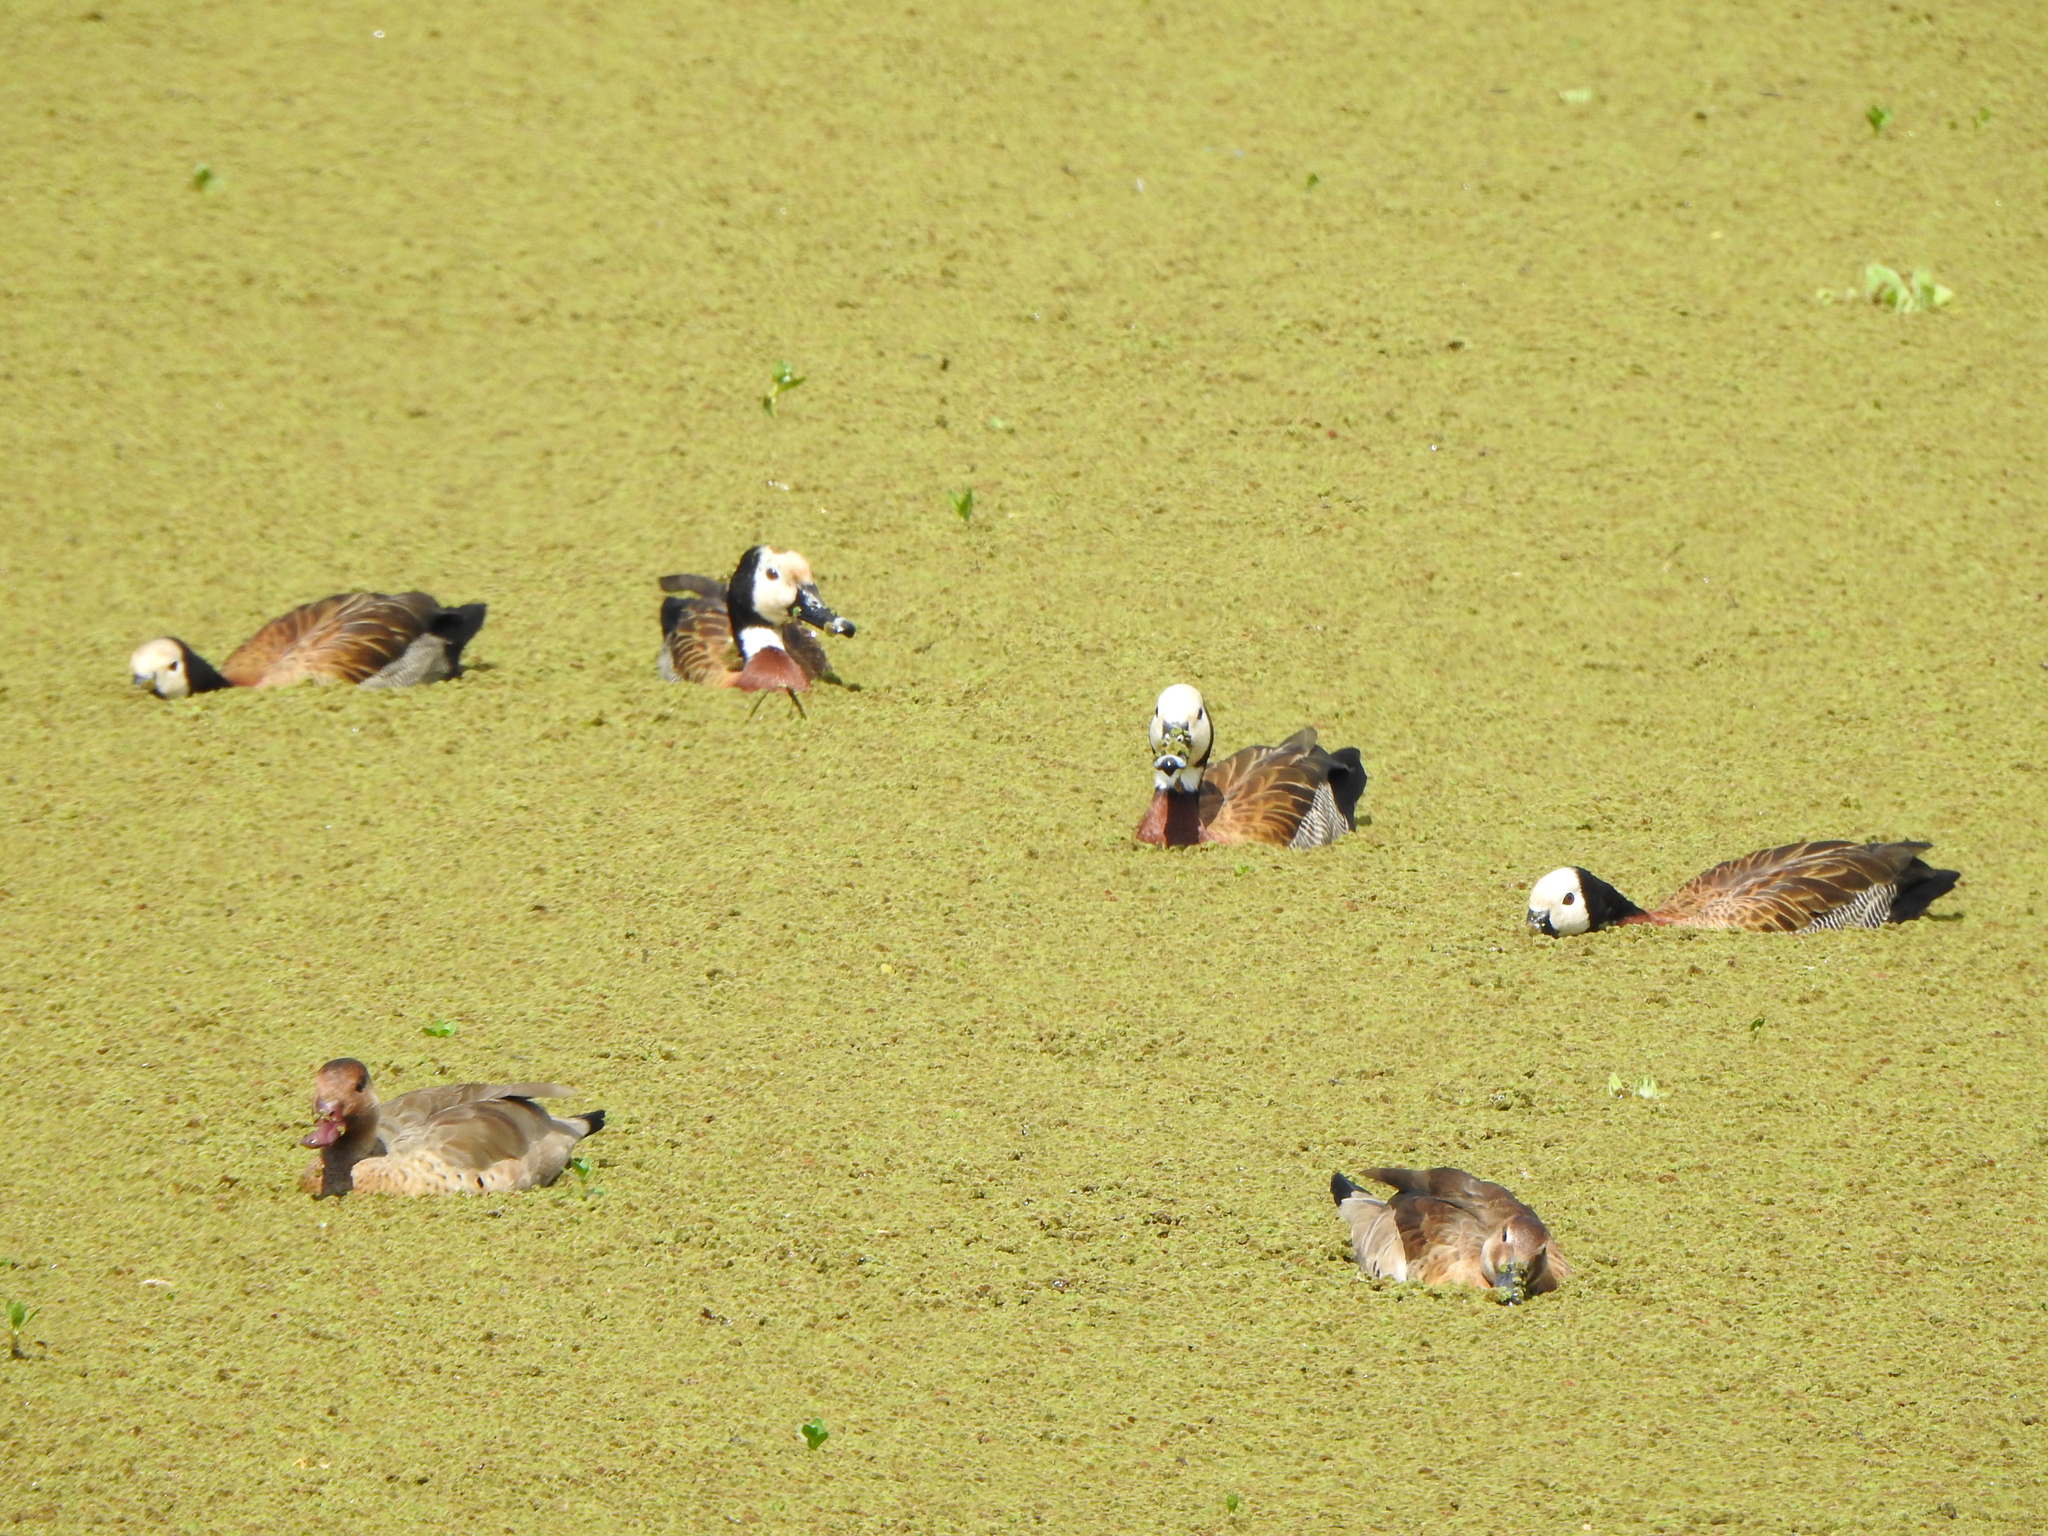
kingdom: Animalia
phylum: Chordata
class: Aves
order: Anseriformes
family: Anatidae
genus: Amazonetta
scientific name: Amazonetta brasiliensis
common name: Brazilian teal
